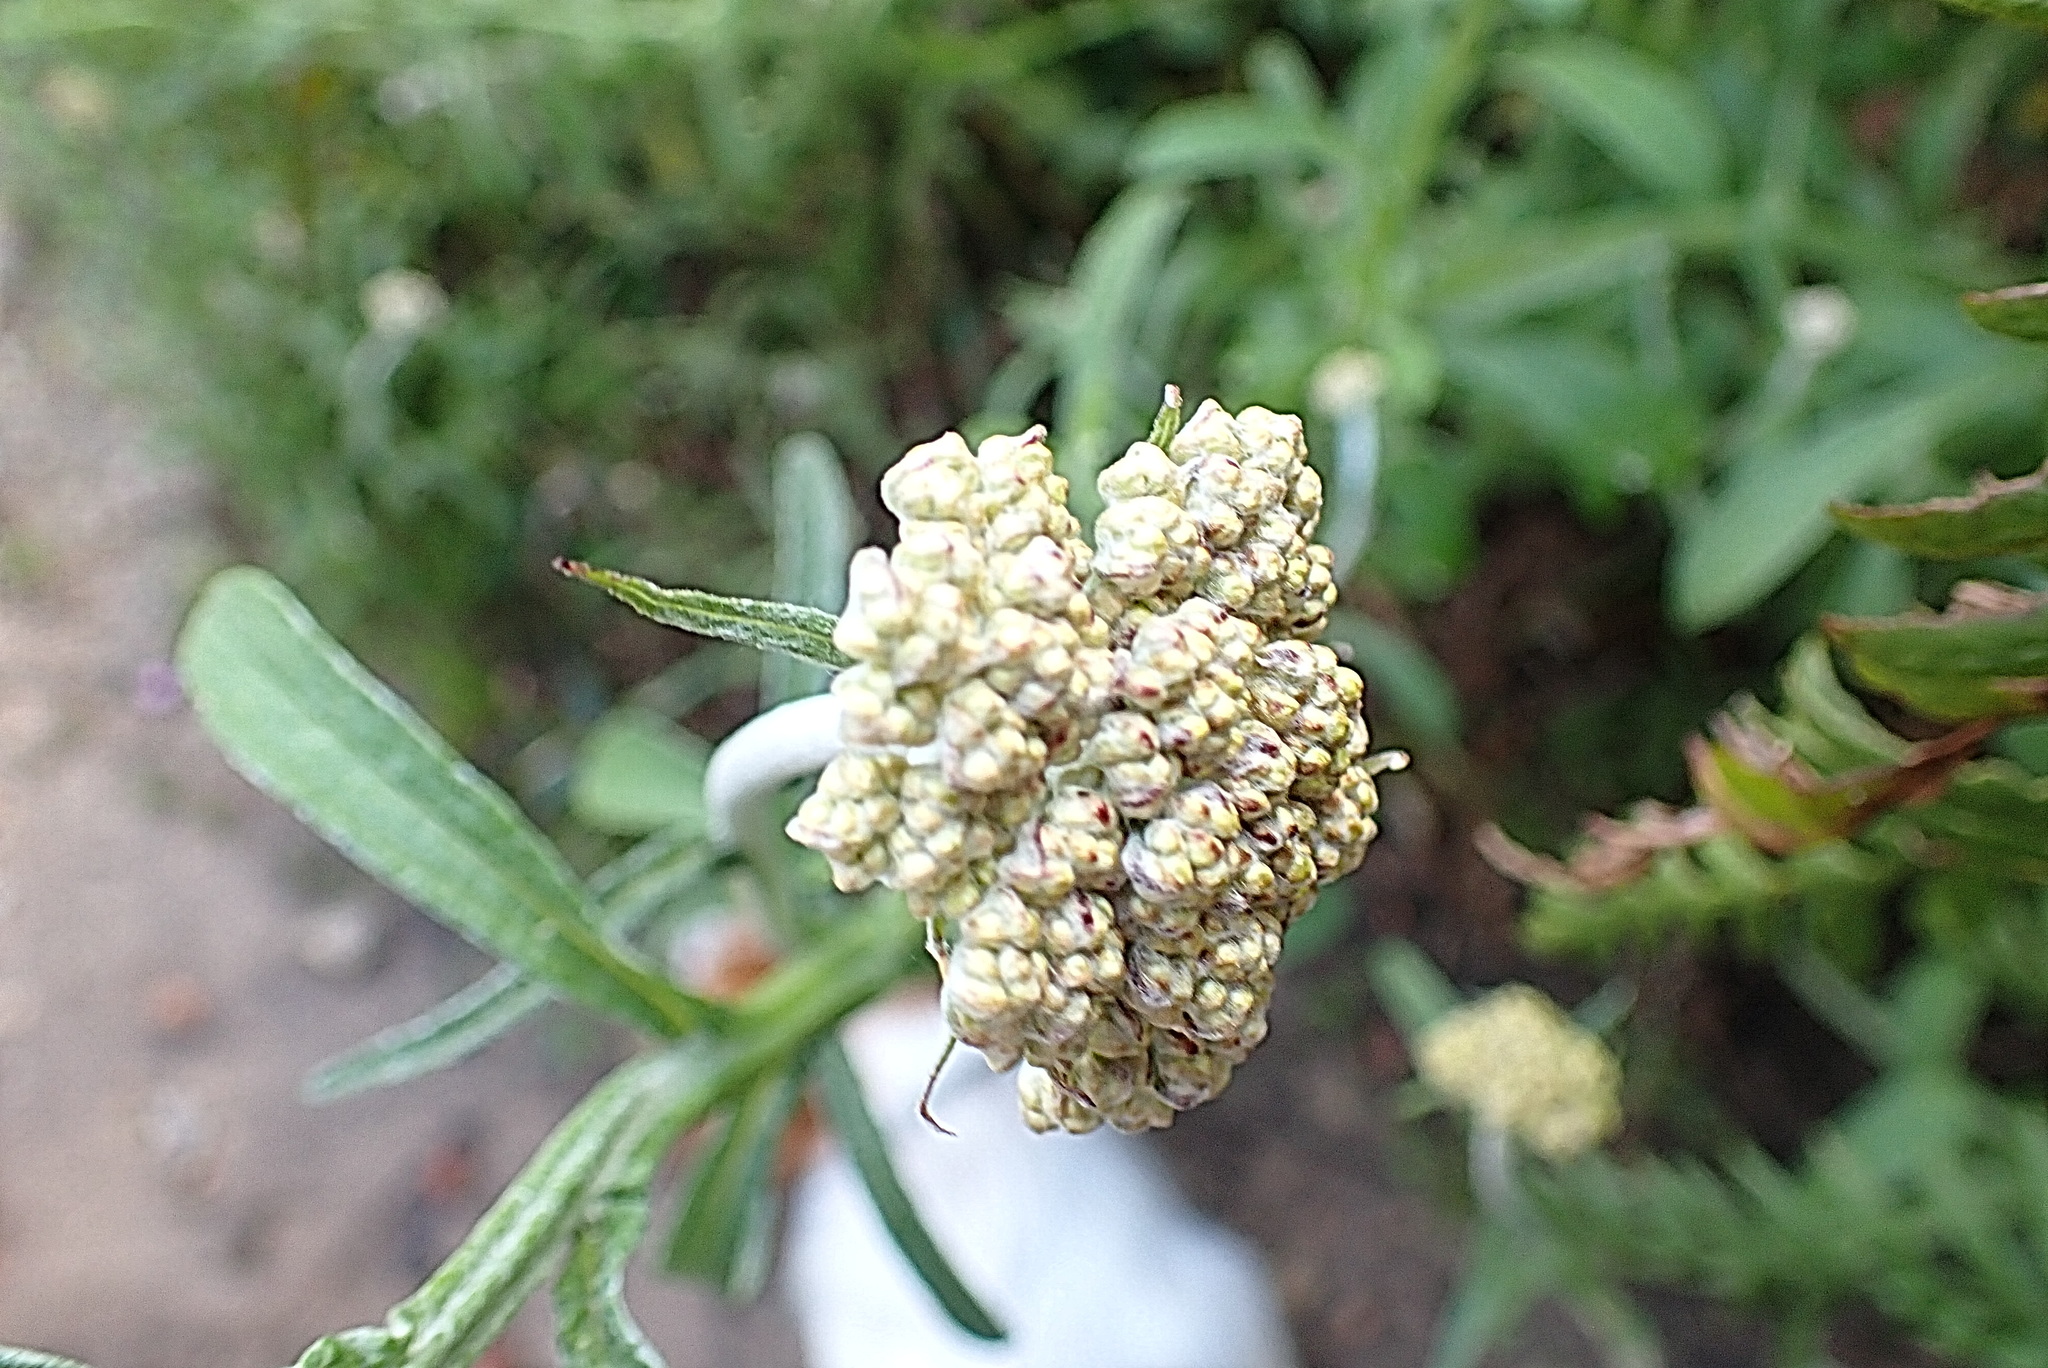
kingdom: Plantae
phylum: Tracheophyta
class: Magnoliopsida
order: Asterales
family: Asteraceae
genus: Helichrysum
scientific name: Helichrysum odoratissimum
